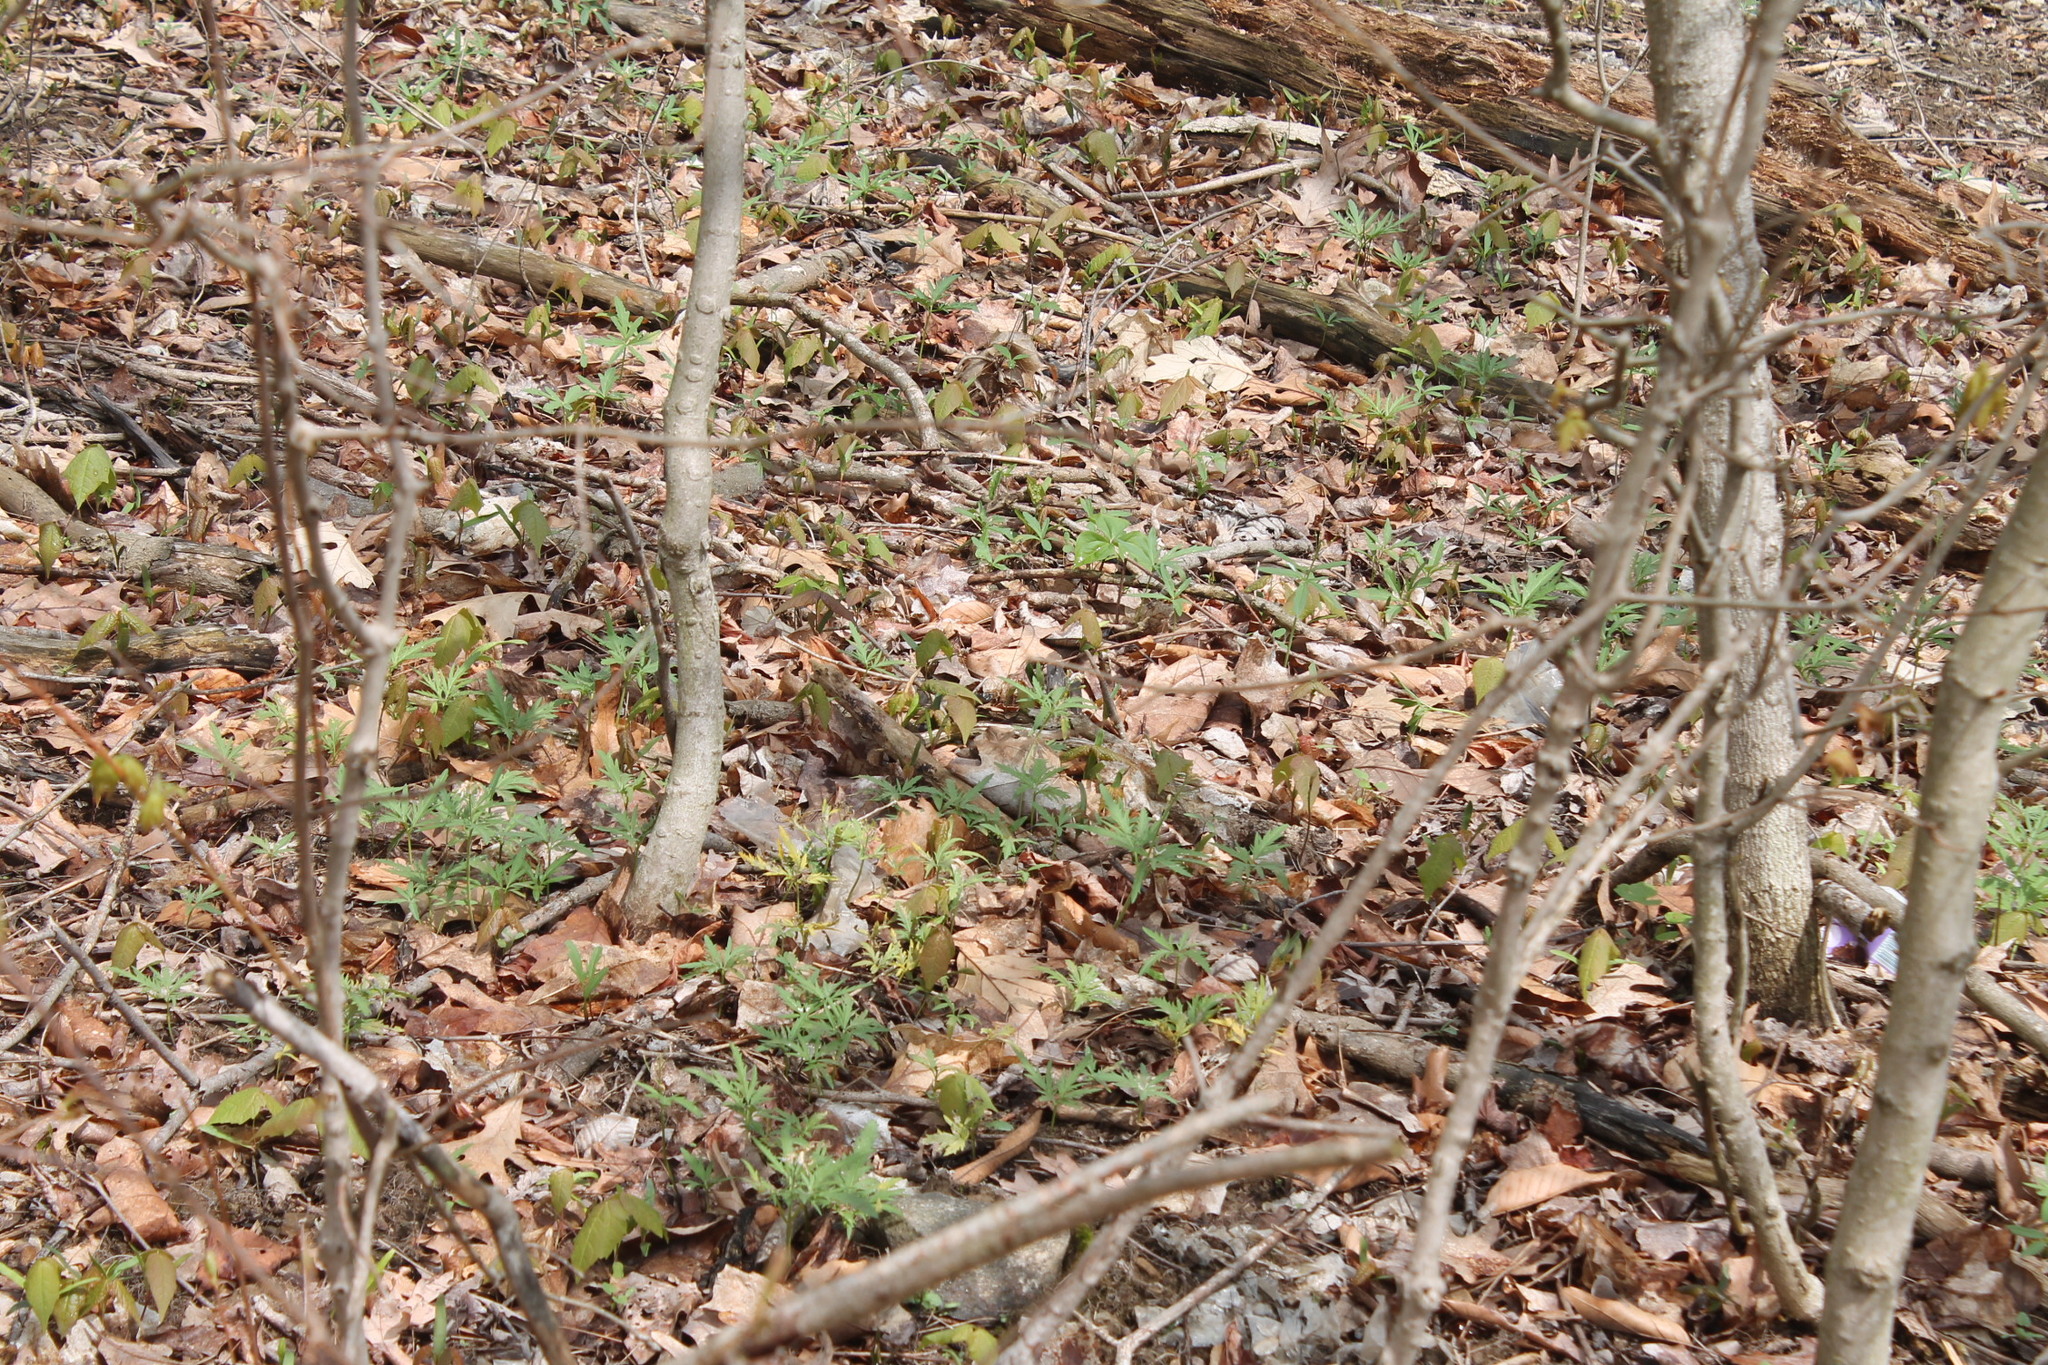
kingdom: Plantae
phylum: Tracheophyta
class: Magnoliopsida
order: Brassicales
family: Brassicaceae
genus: Cardamine
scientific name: Cardamine concatenata
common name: Cut-leaf toothcup
